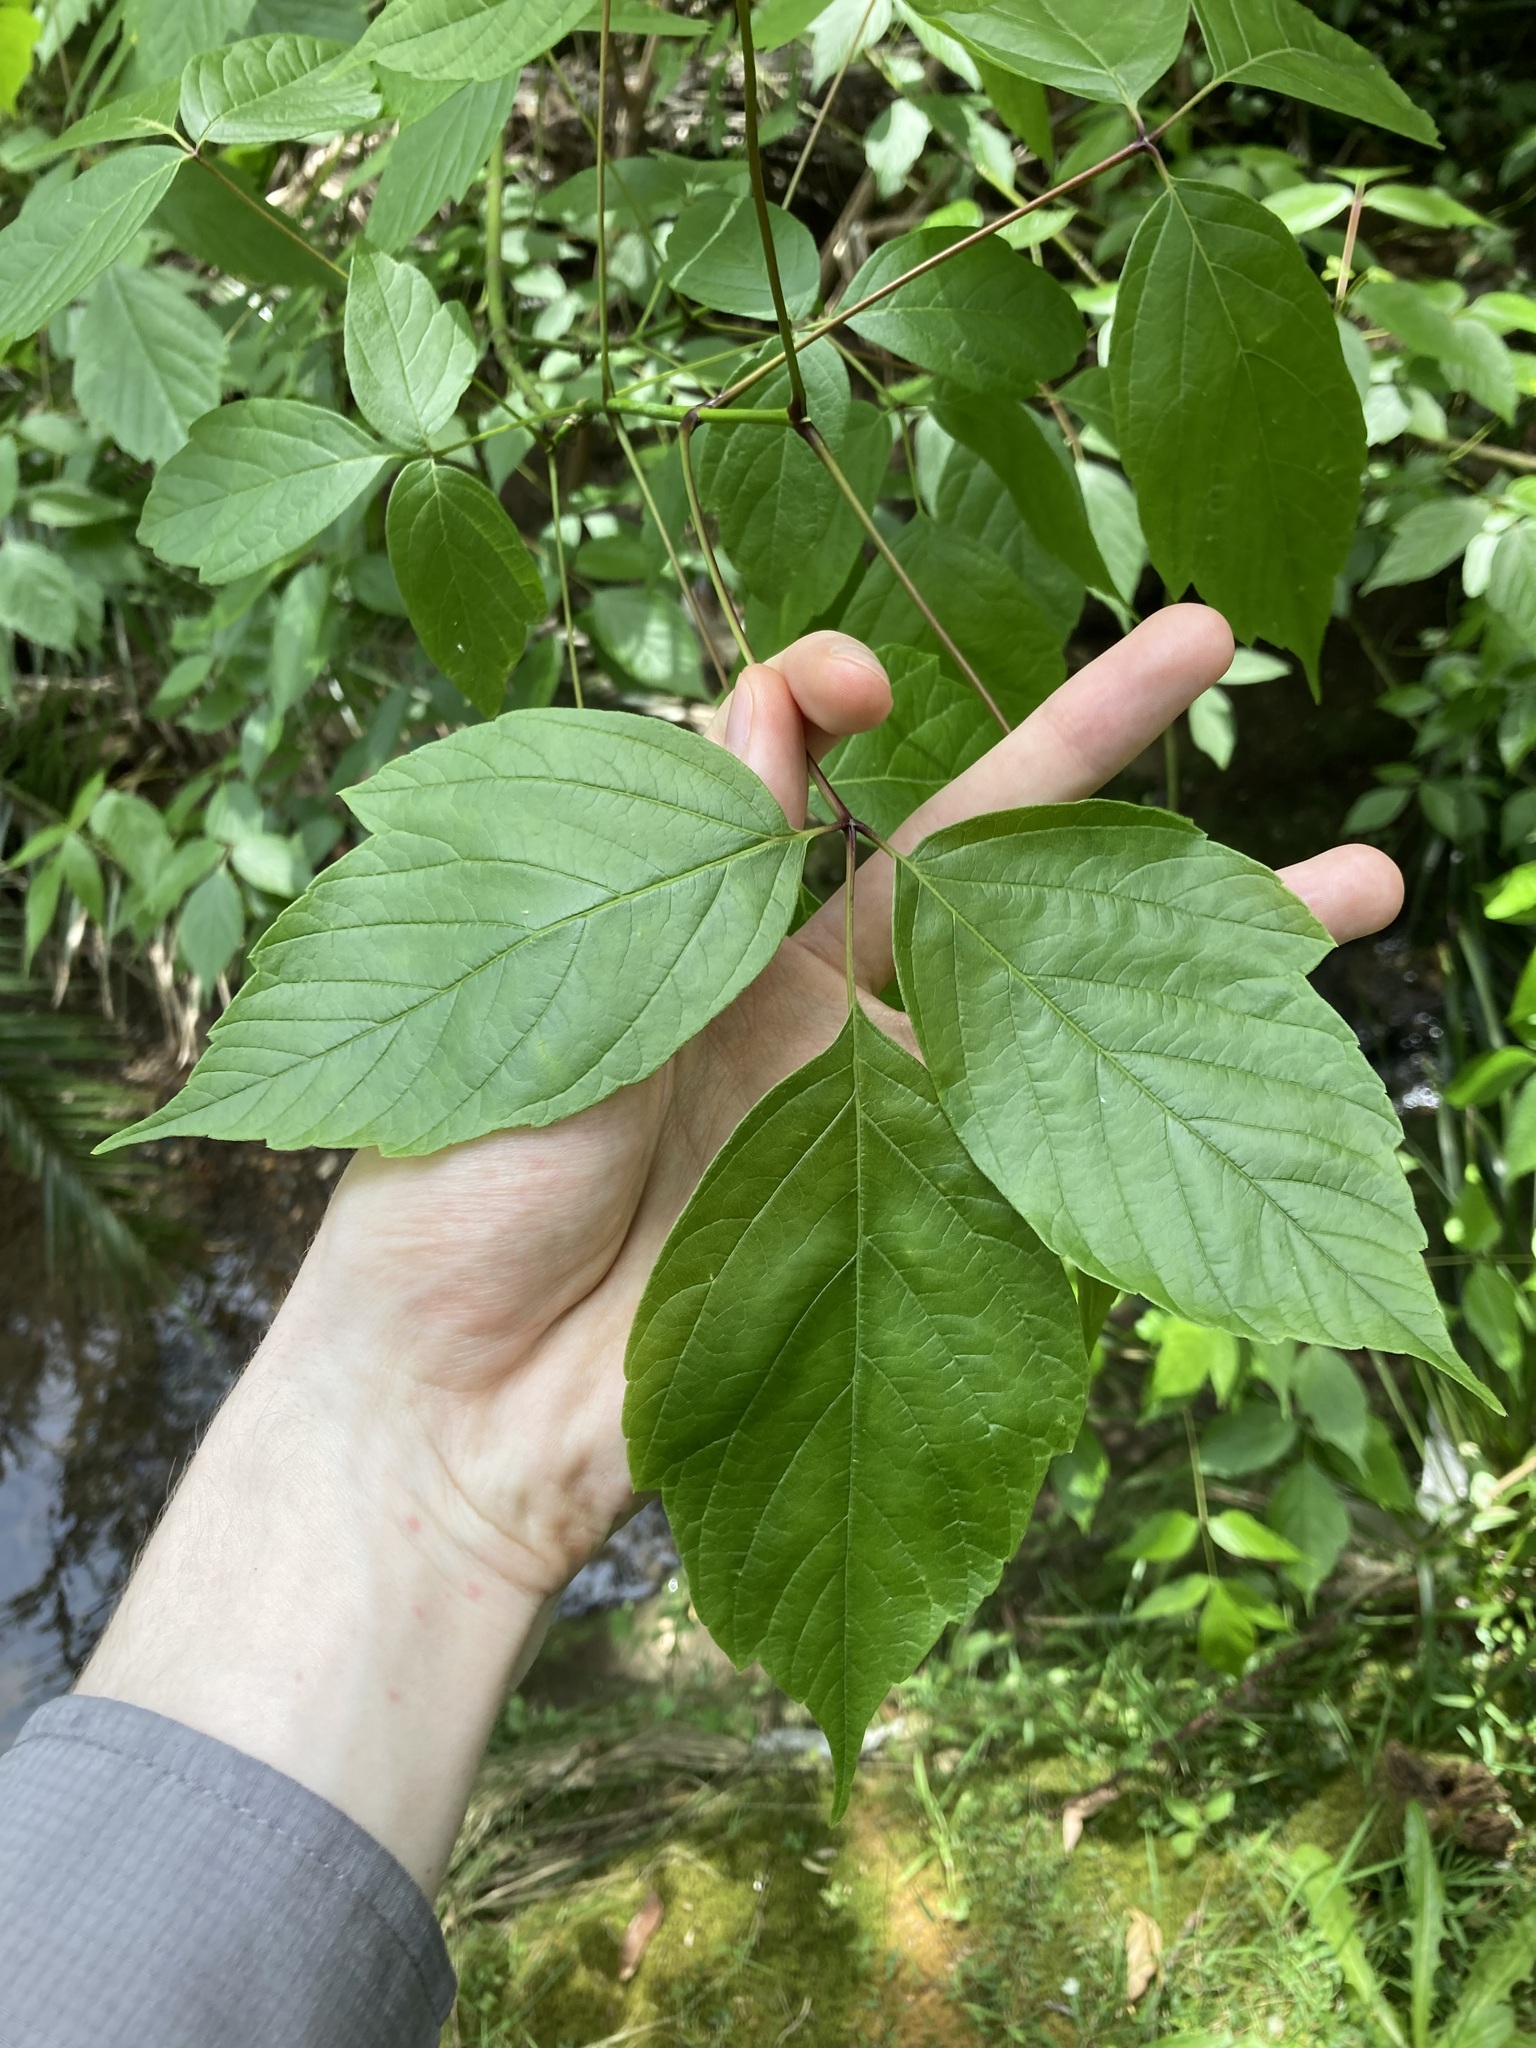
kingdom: Plantae
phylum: Tracheophyta
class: Magnoliopsida
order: Sapindales
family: Sapindaceae
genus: Acer
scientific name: Acer negundo
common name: Ashleaf maple
